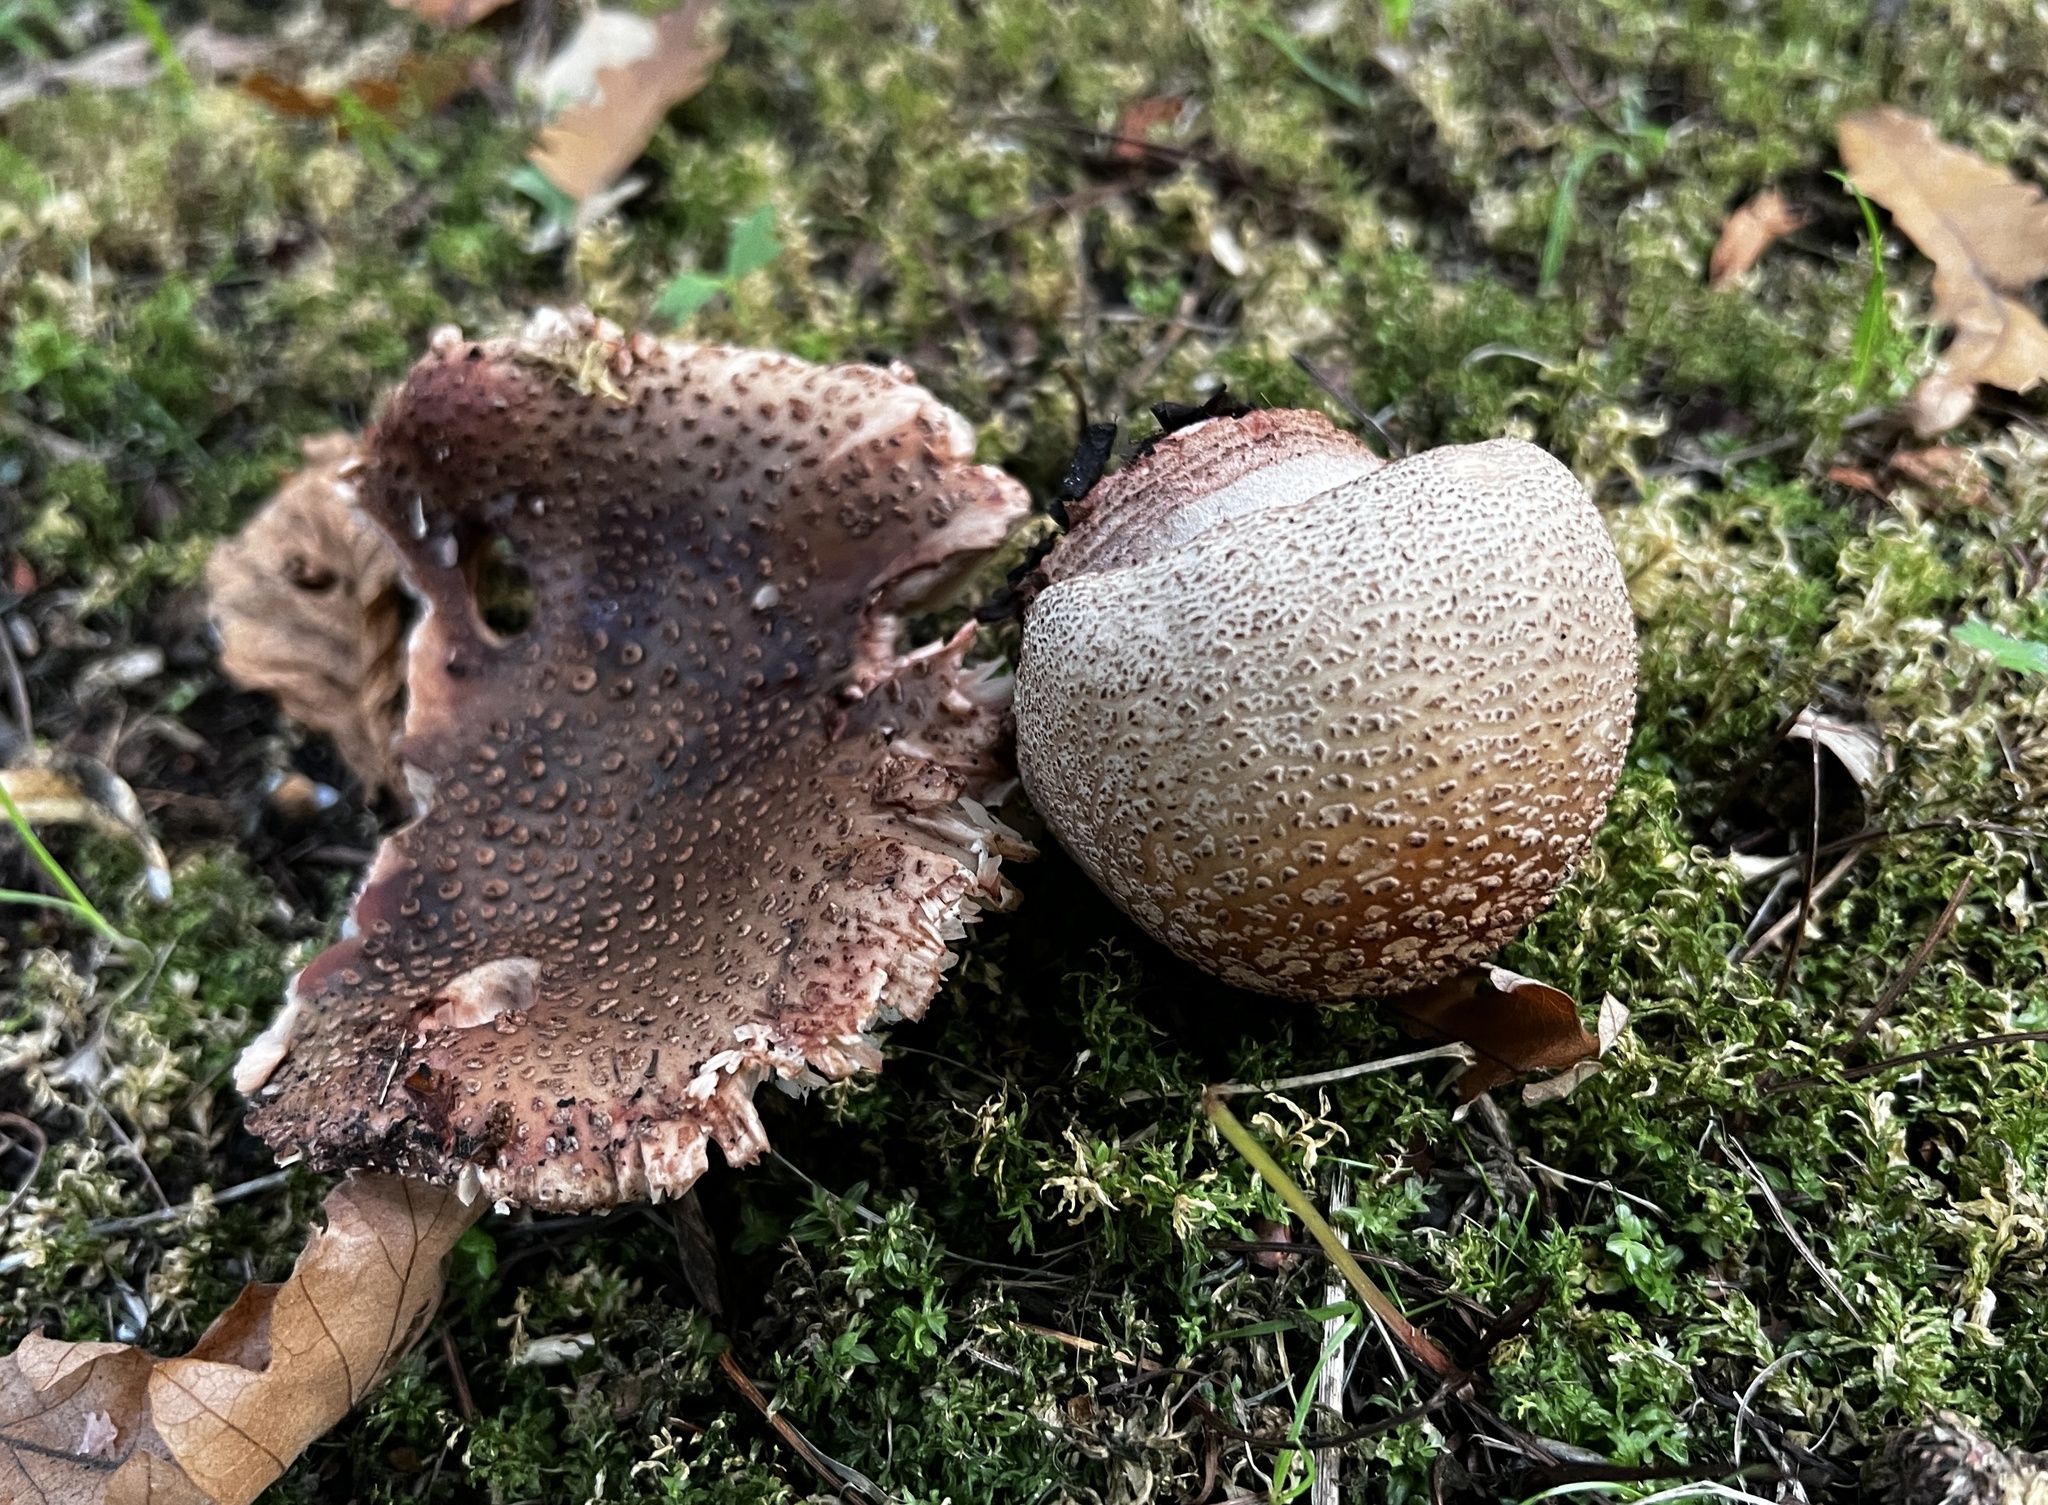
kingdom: Fungi
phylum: Basidiomycota
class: Agaricomycetes
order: Agaricales
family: Amanitaceae
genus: Amanita
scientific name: Amanita rubescens
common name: Blusher
